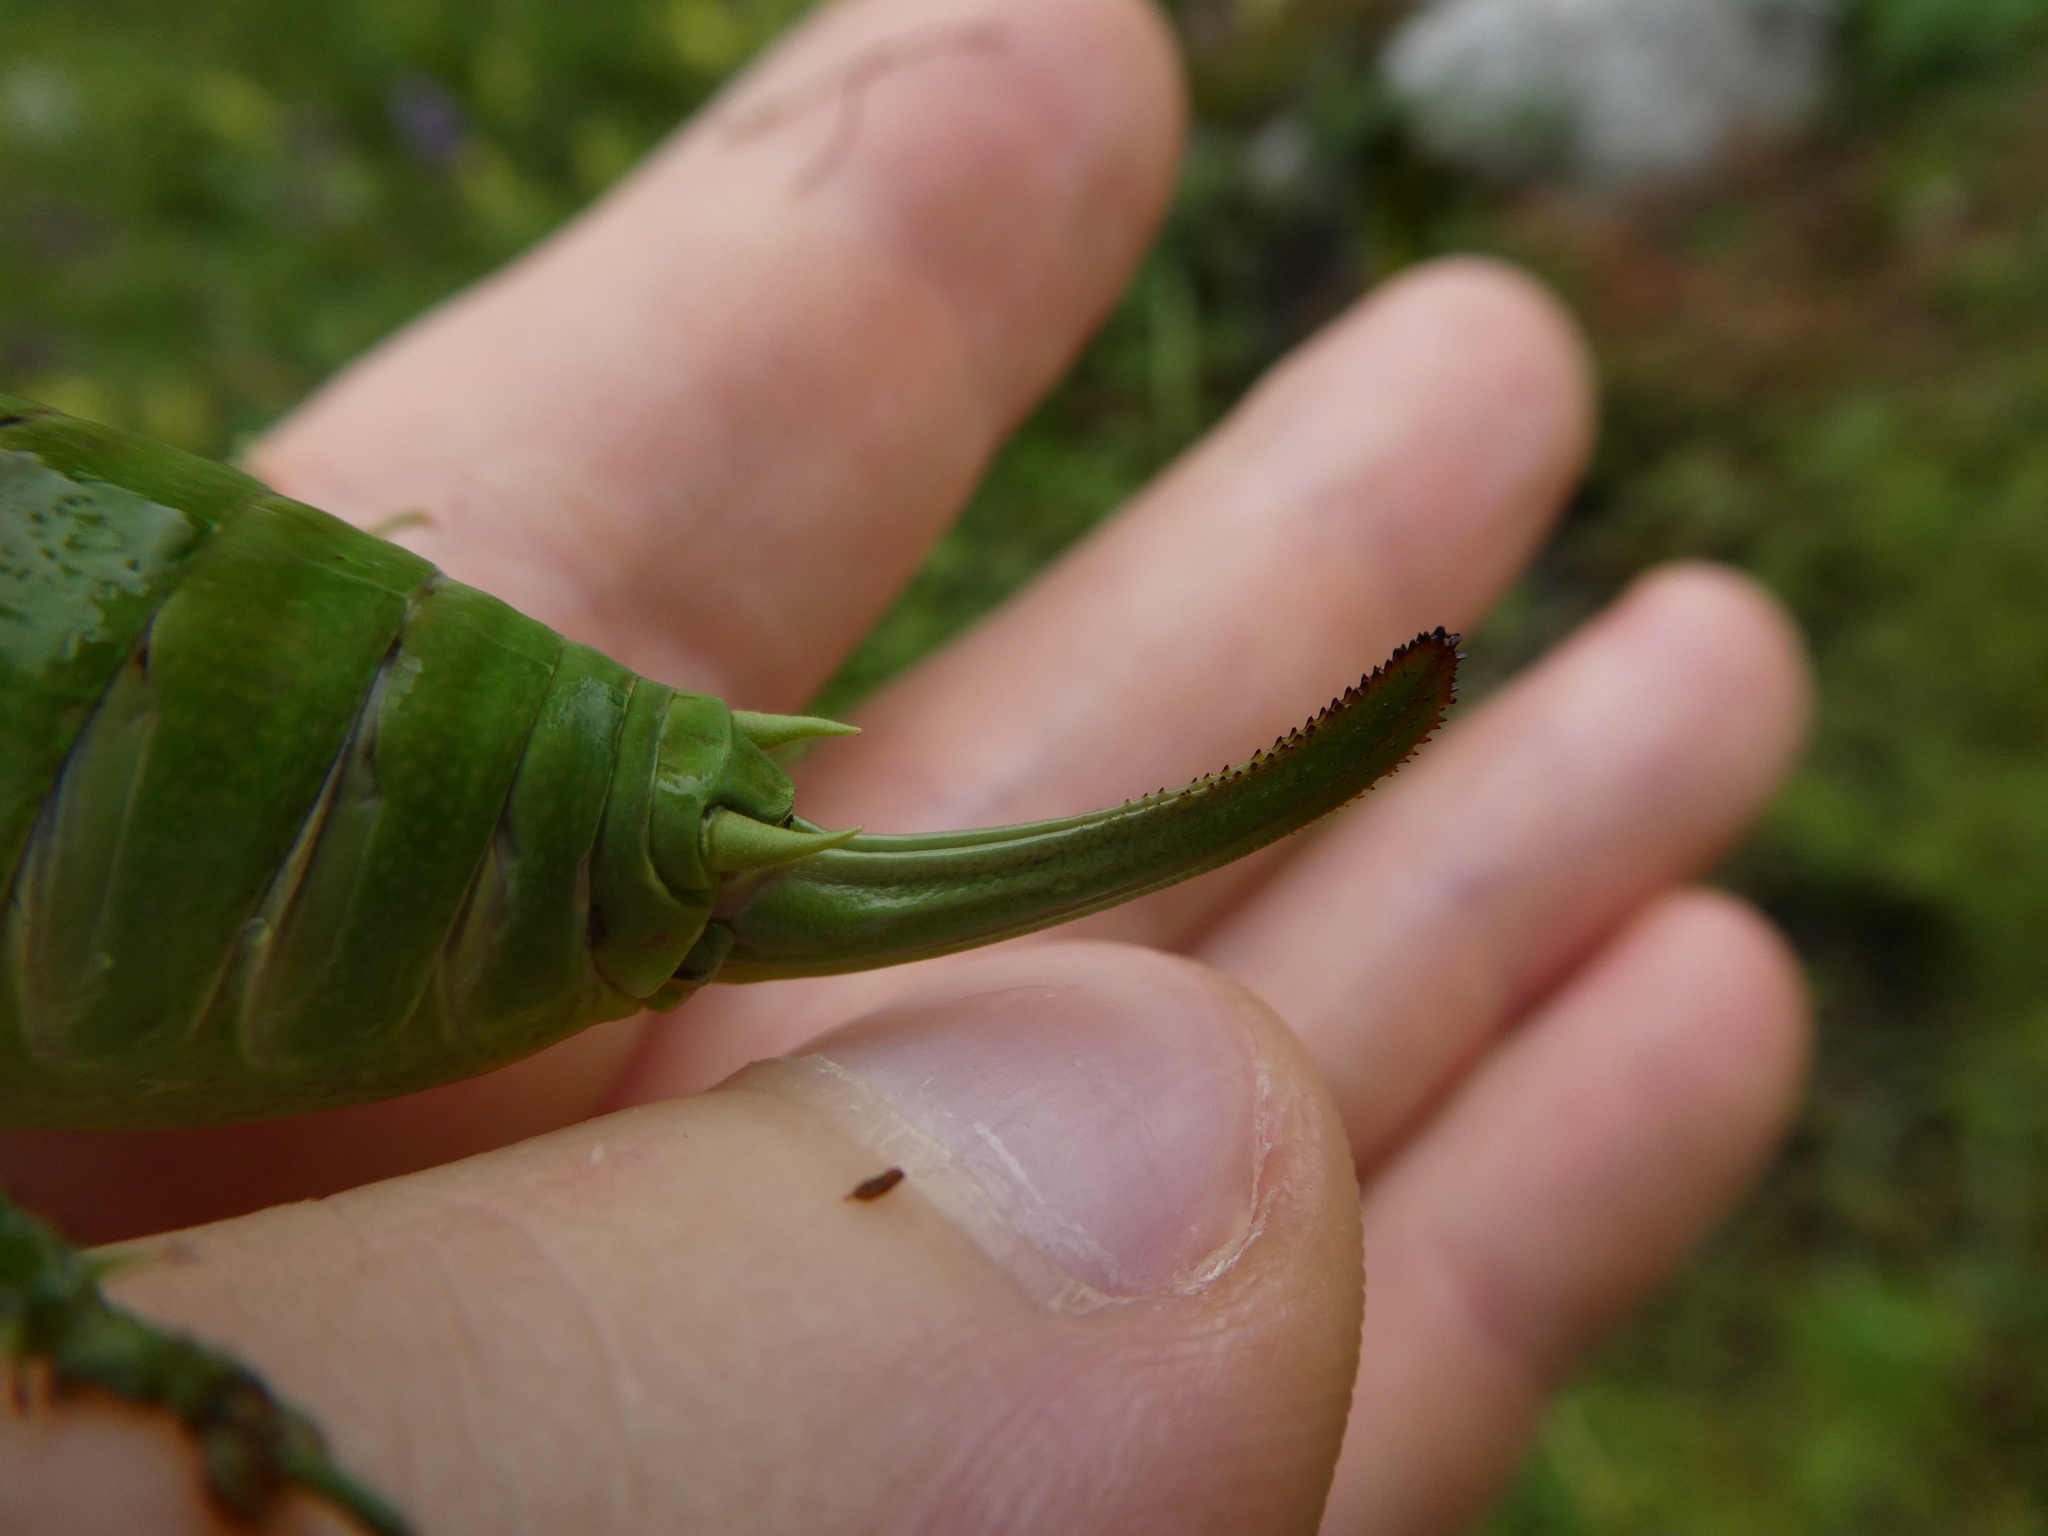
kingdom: Animalia
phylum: Arthropoda
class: Insecta
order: Orthoptera
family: Tettigoniidae
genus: Polysarcus
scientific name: Polysarcus denticauda
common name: Large saw-tailed bush-cricket
